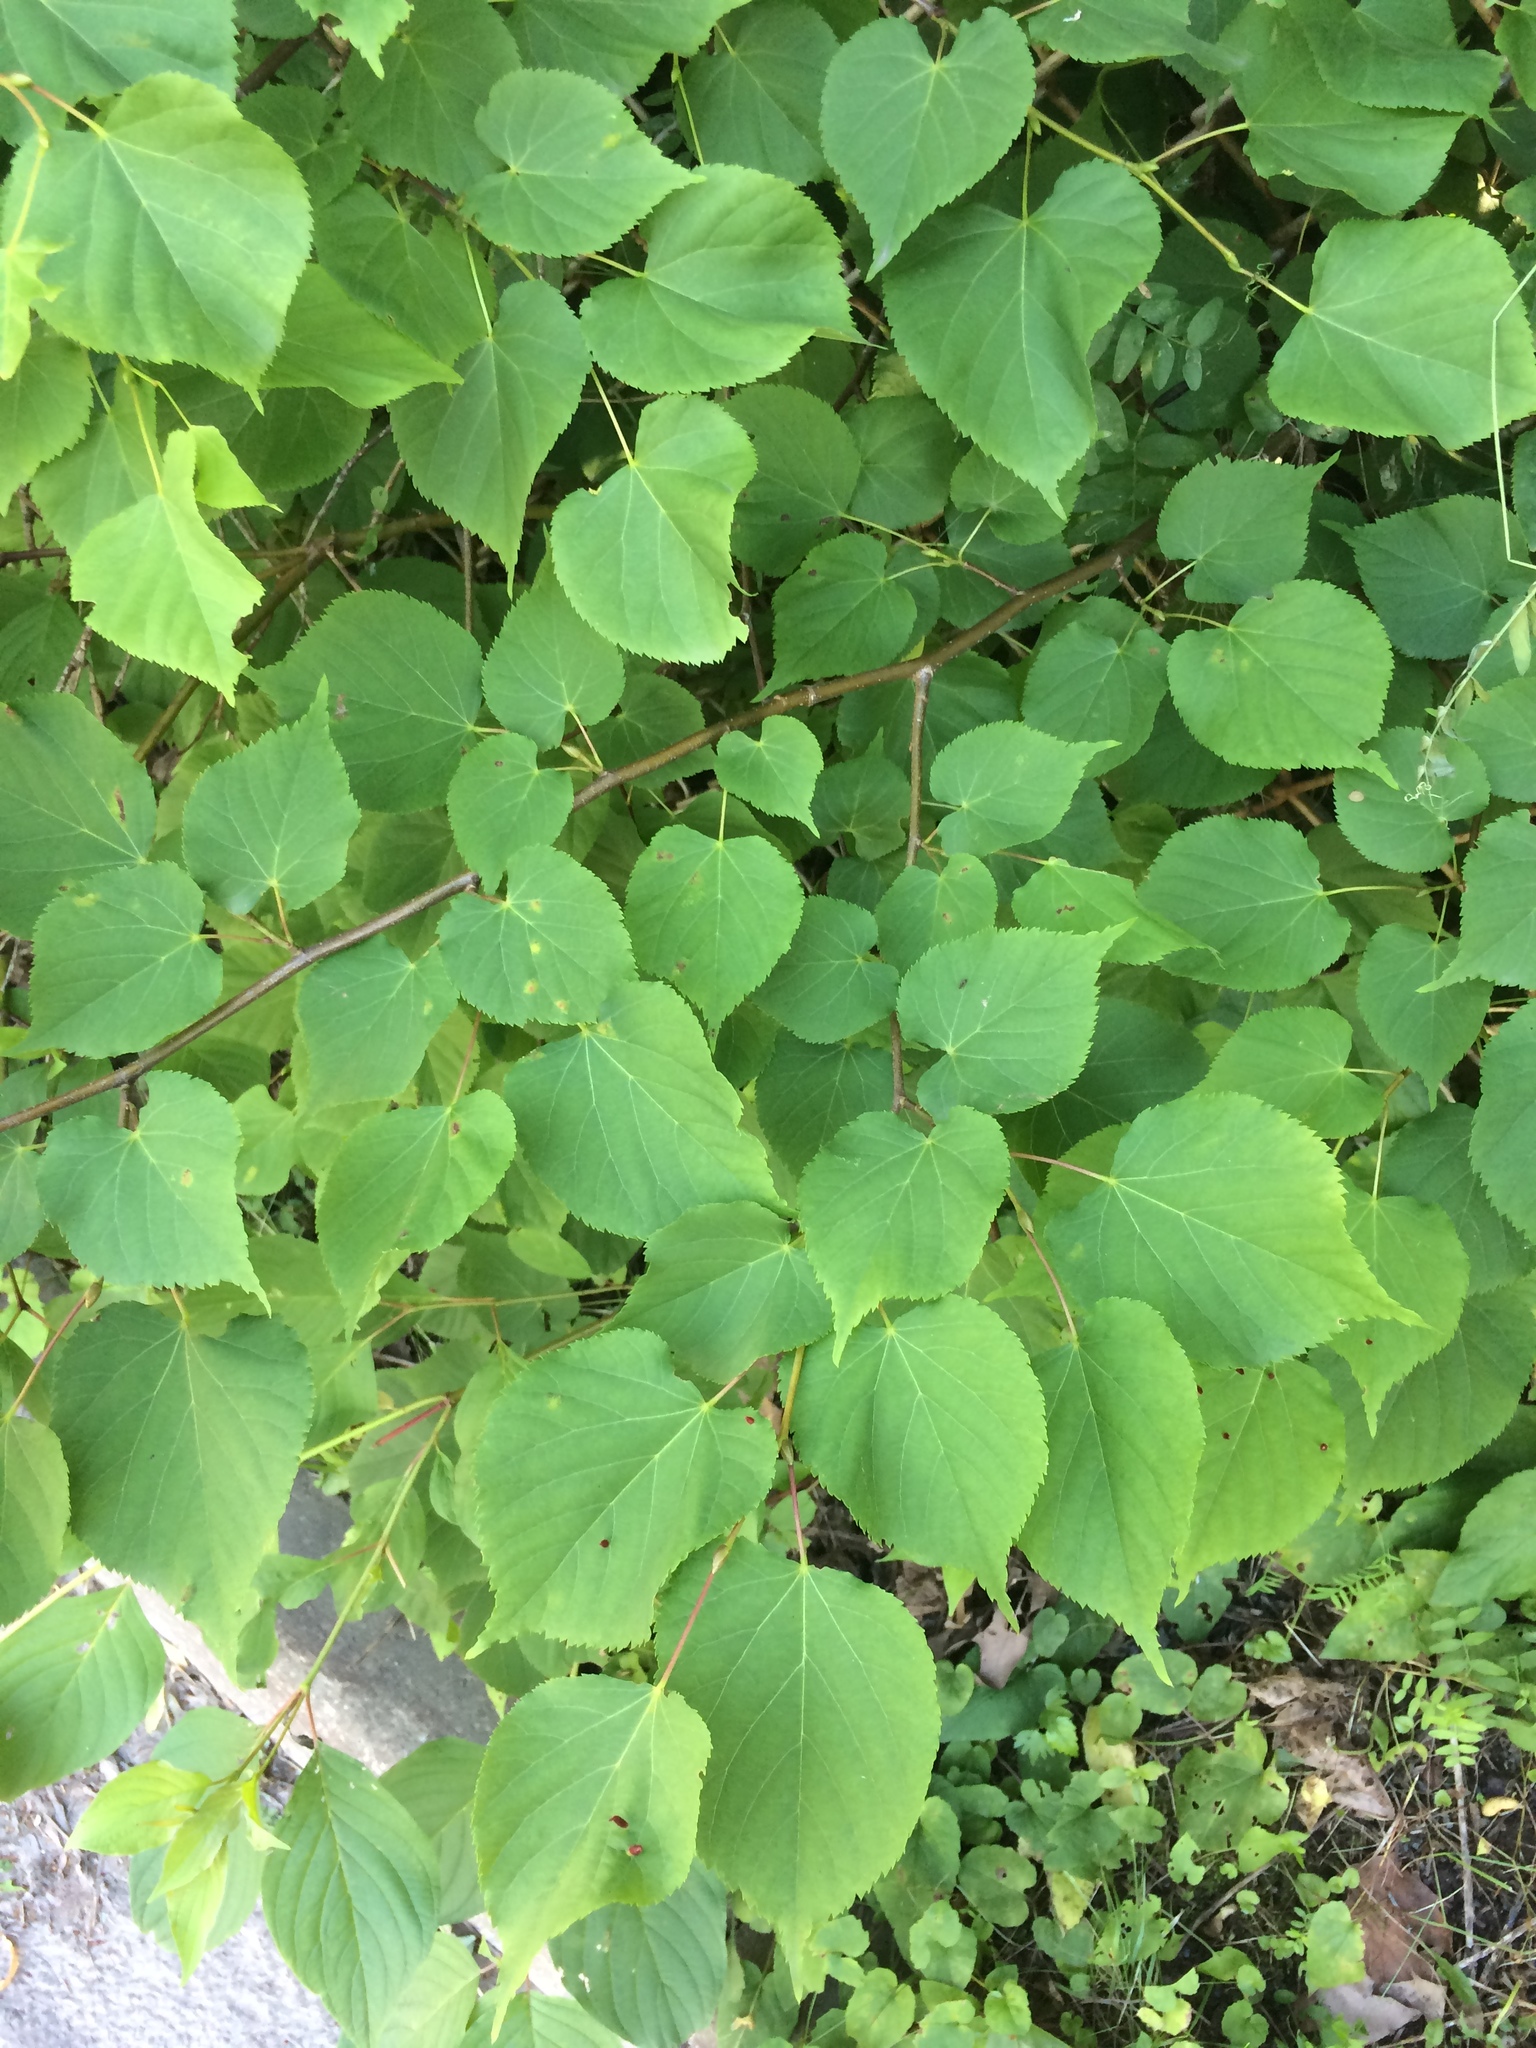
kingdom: Plantae
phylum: Tracheophyta
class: Magnoliopsida
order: Malvales
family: Malvaceae
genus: Tilia
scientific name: Tilia cordata
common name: Small-leaved lime
